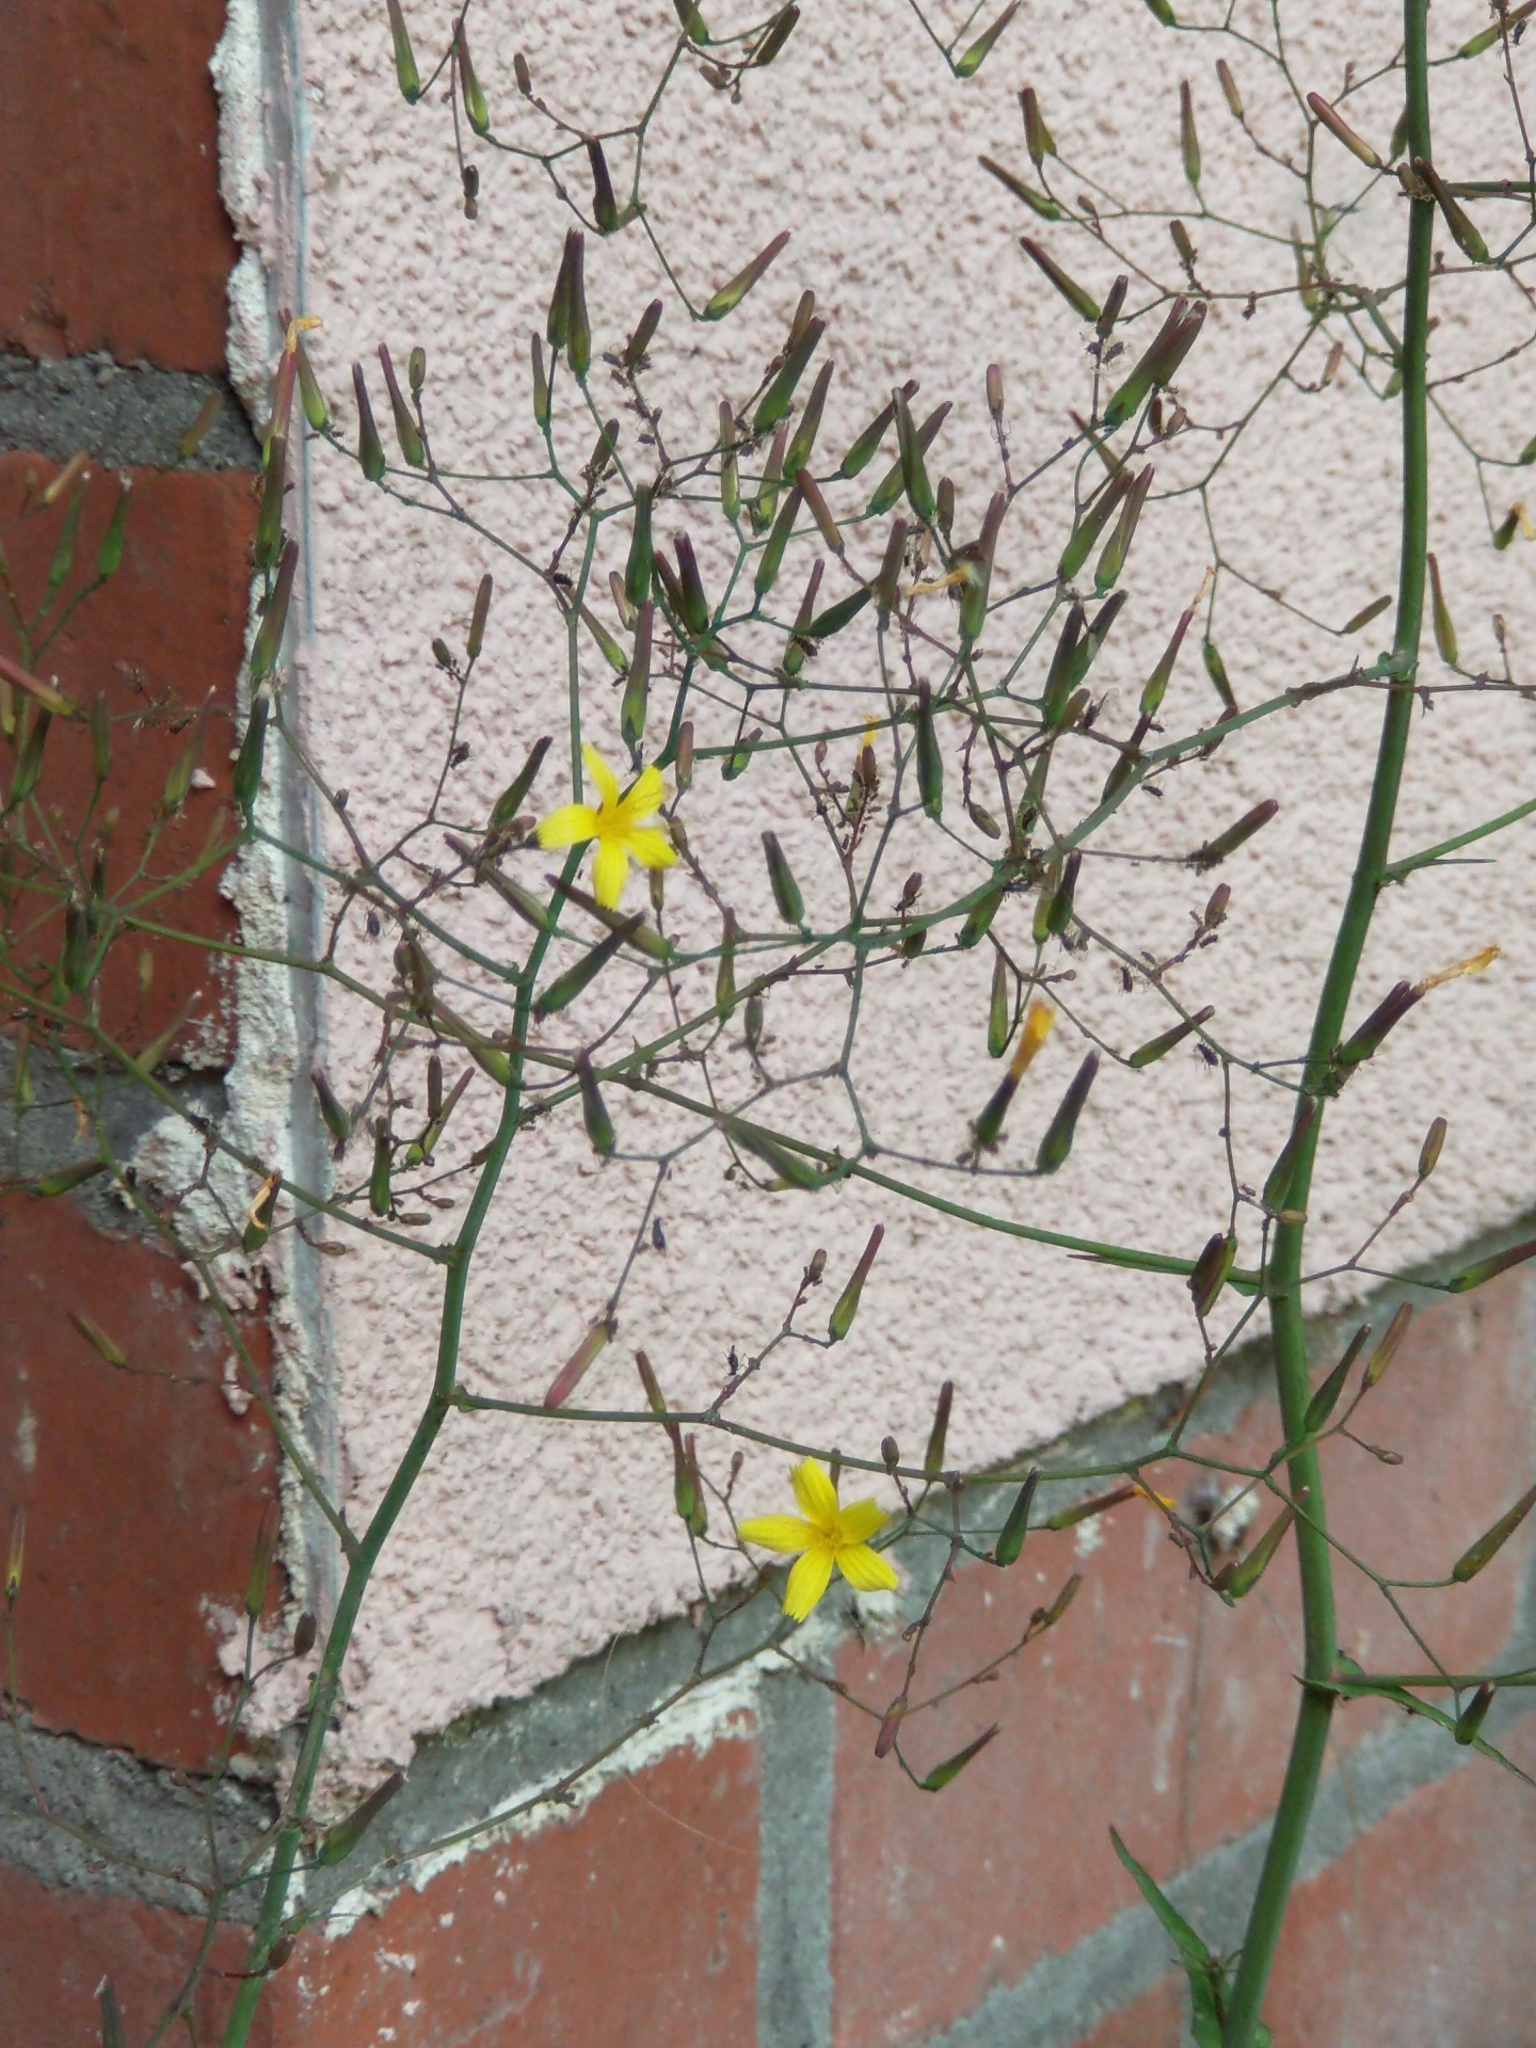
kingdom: Plantae
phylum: Tracheophyta
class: Magnoliopsida
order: Asterales
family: Asteraceae
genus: Mycelis
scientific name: Mycelis muralis
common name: Wall lettuce
